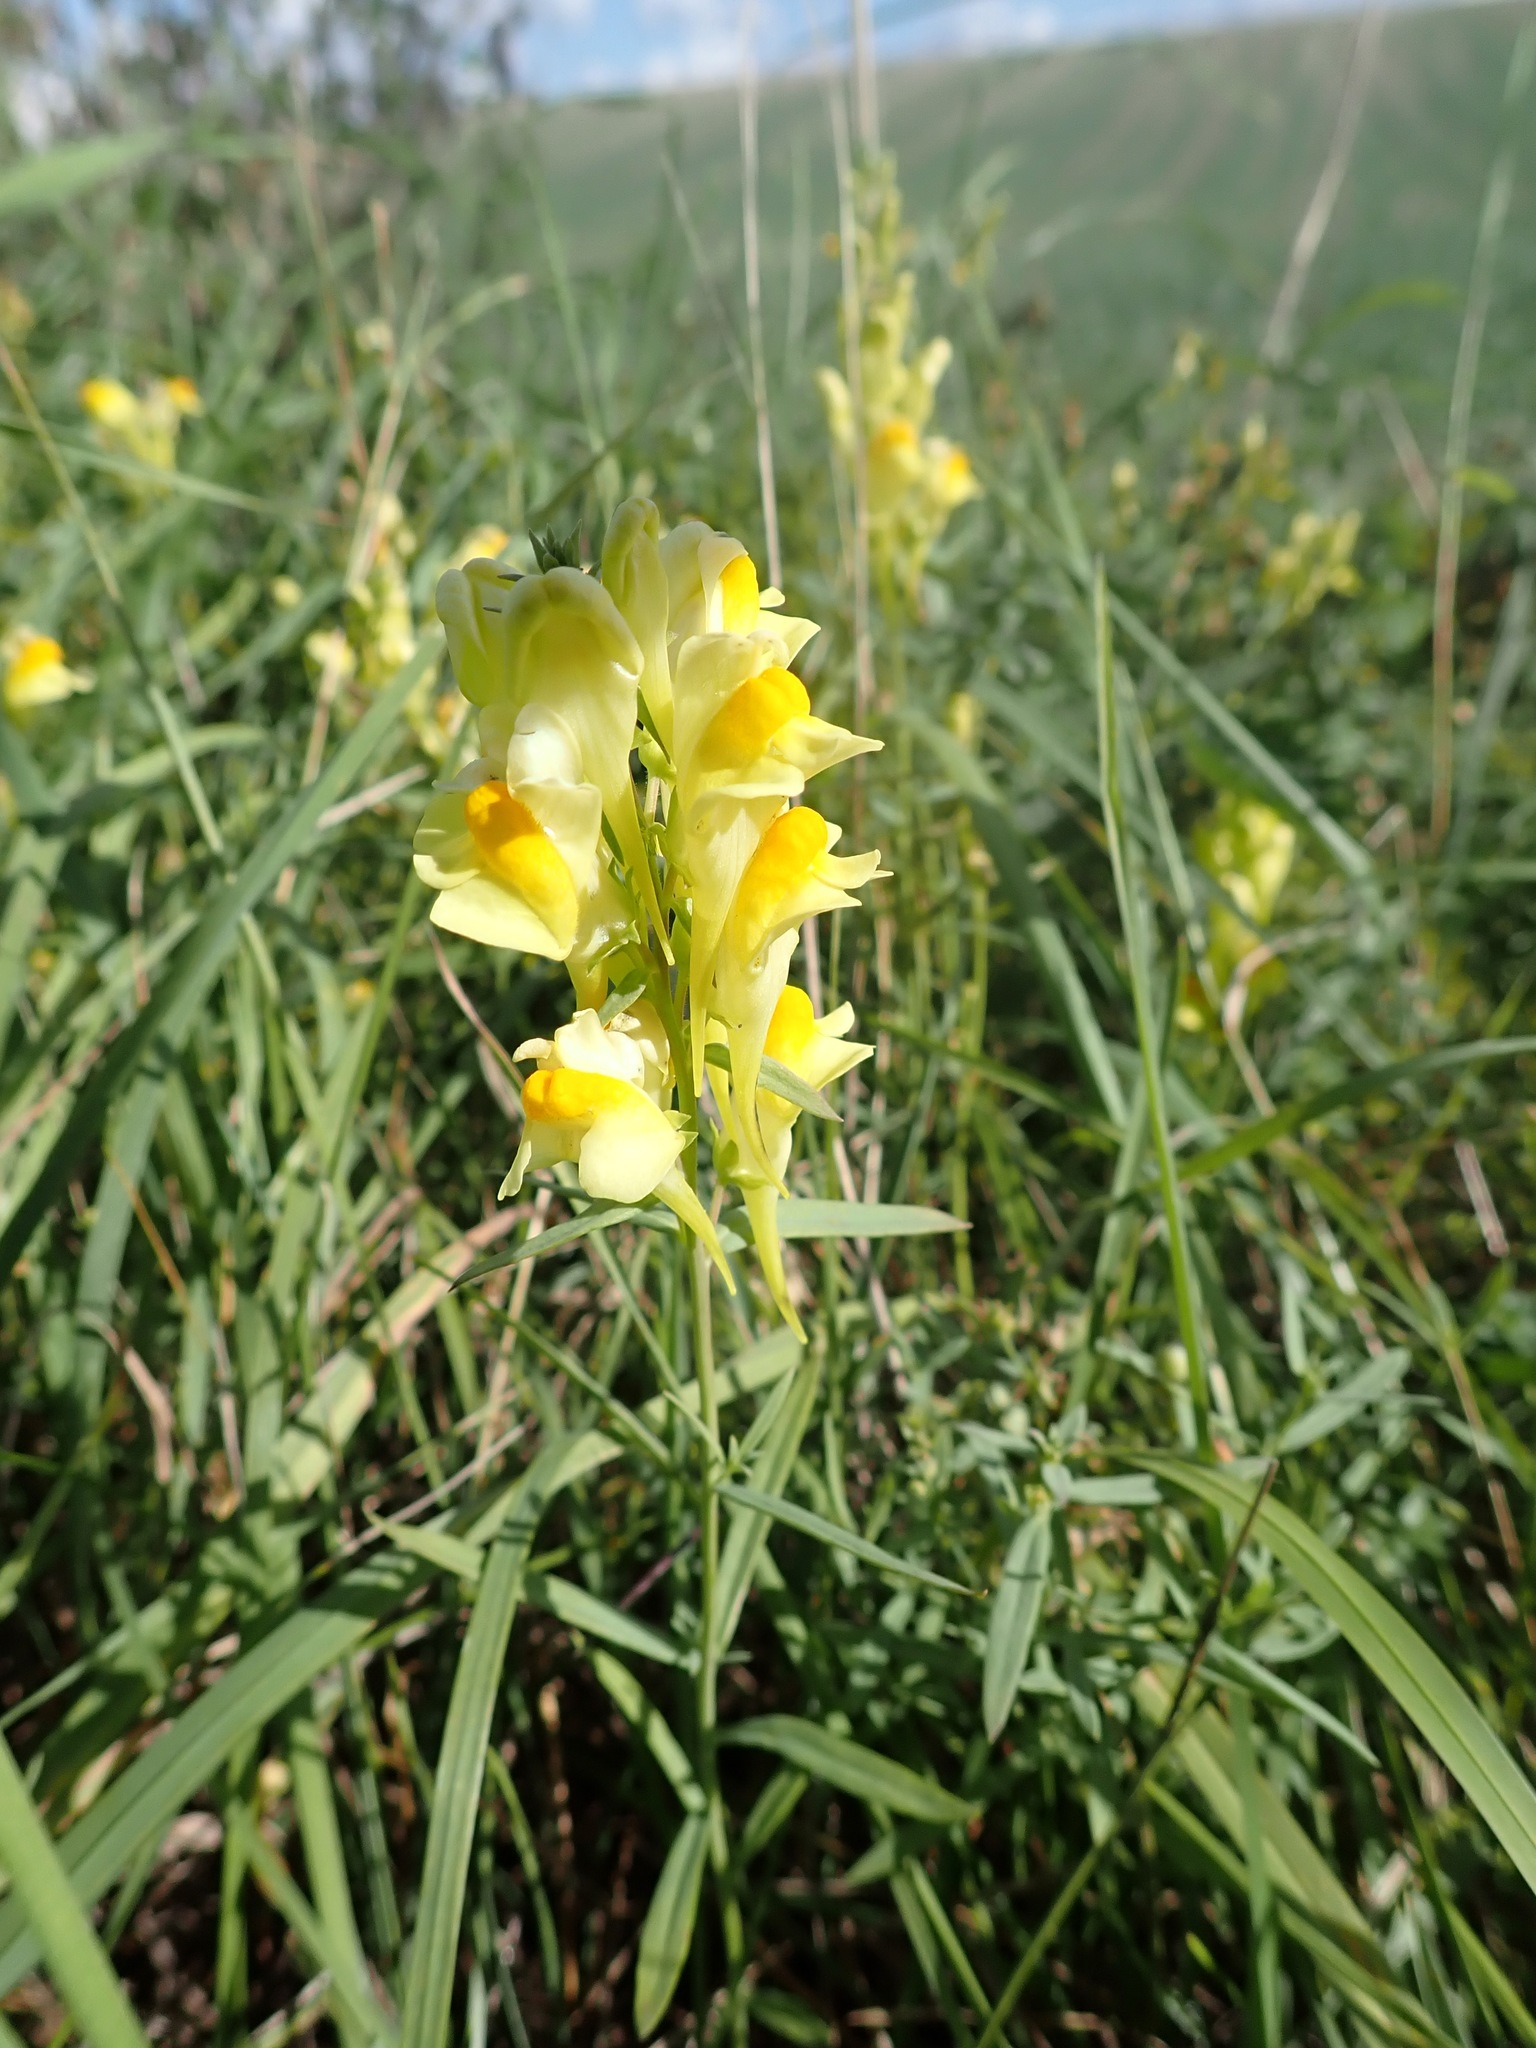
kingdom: Plantae
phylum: Tracheophyta
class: Magnoliopsida
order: Lamiales
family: Plantaginaceae
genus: Linaria
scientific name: Linaria vulgaris
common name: Butter and eggs
